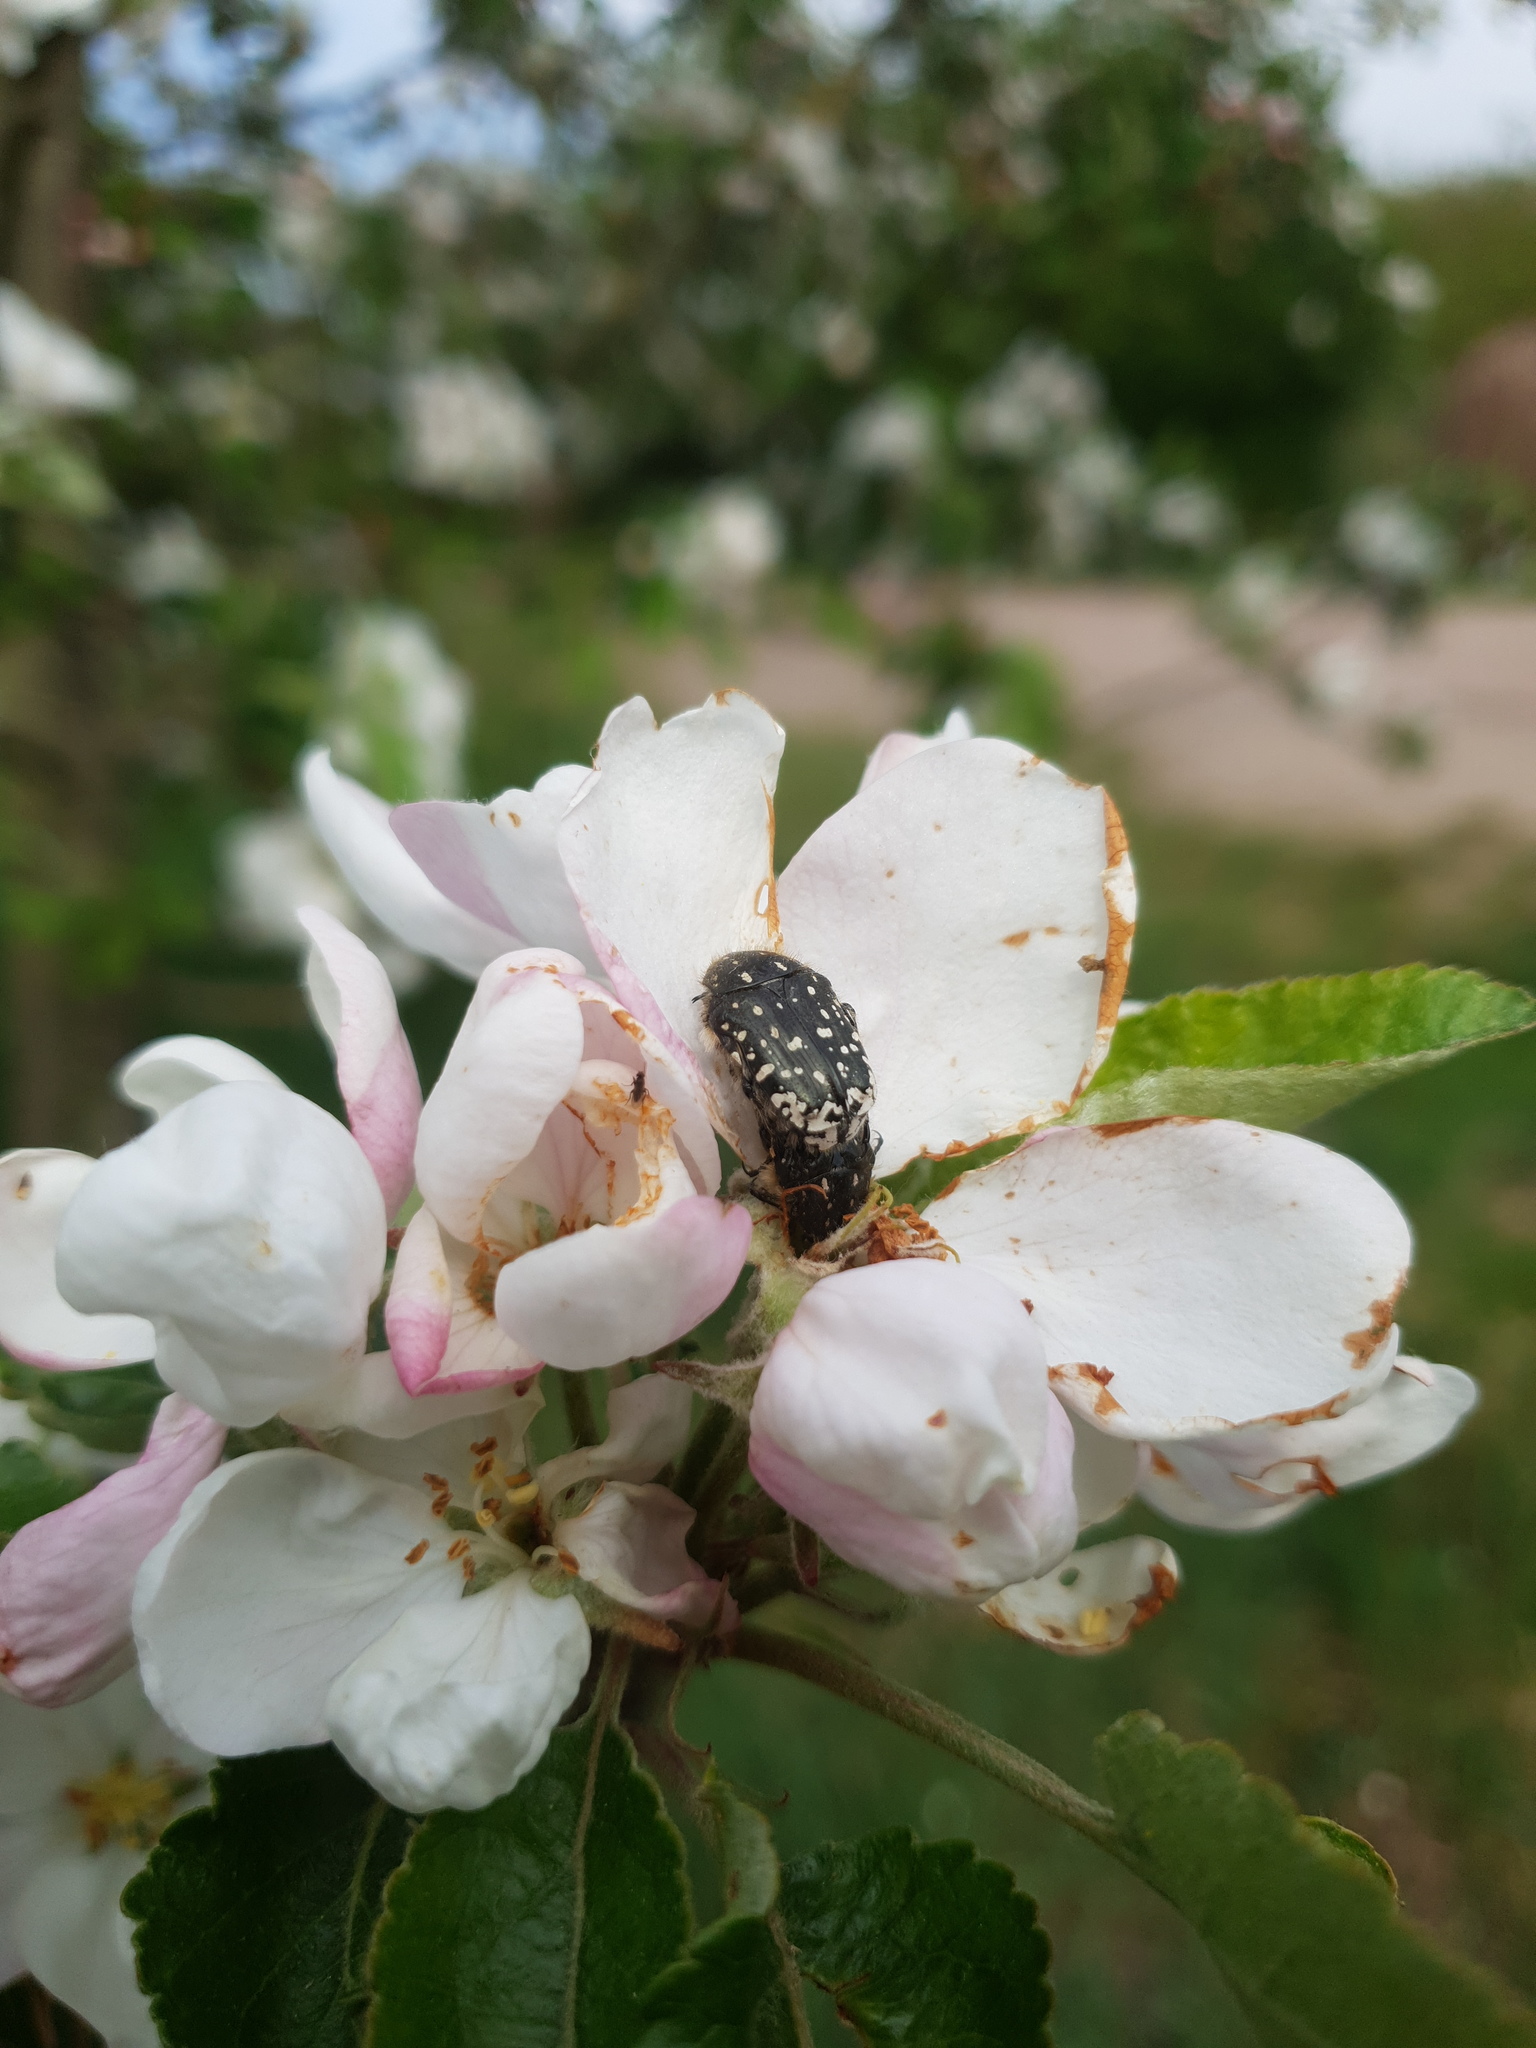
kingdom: Animalia
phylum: Arthropoda
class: Insecta
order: Coleoptera
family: Scarabaeidae
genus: Oxythyrea
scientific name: Oxythyrea funesta
